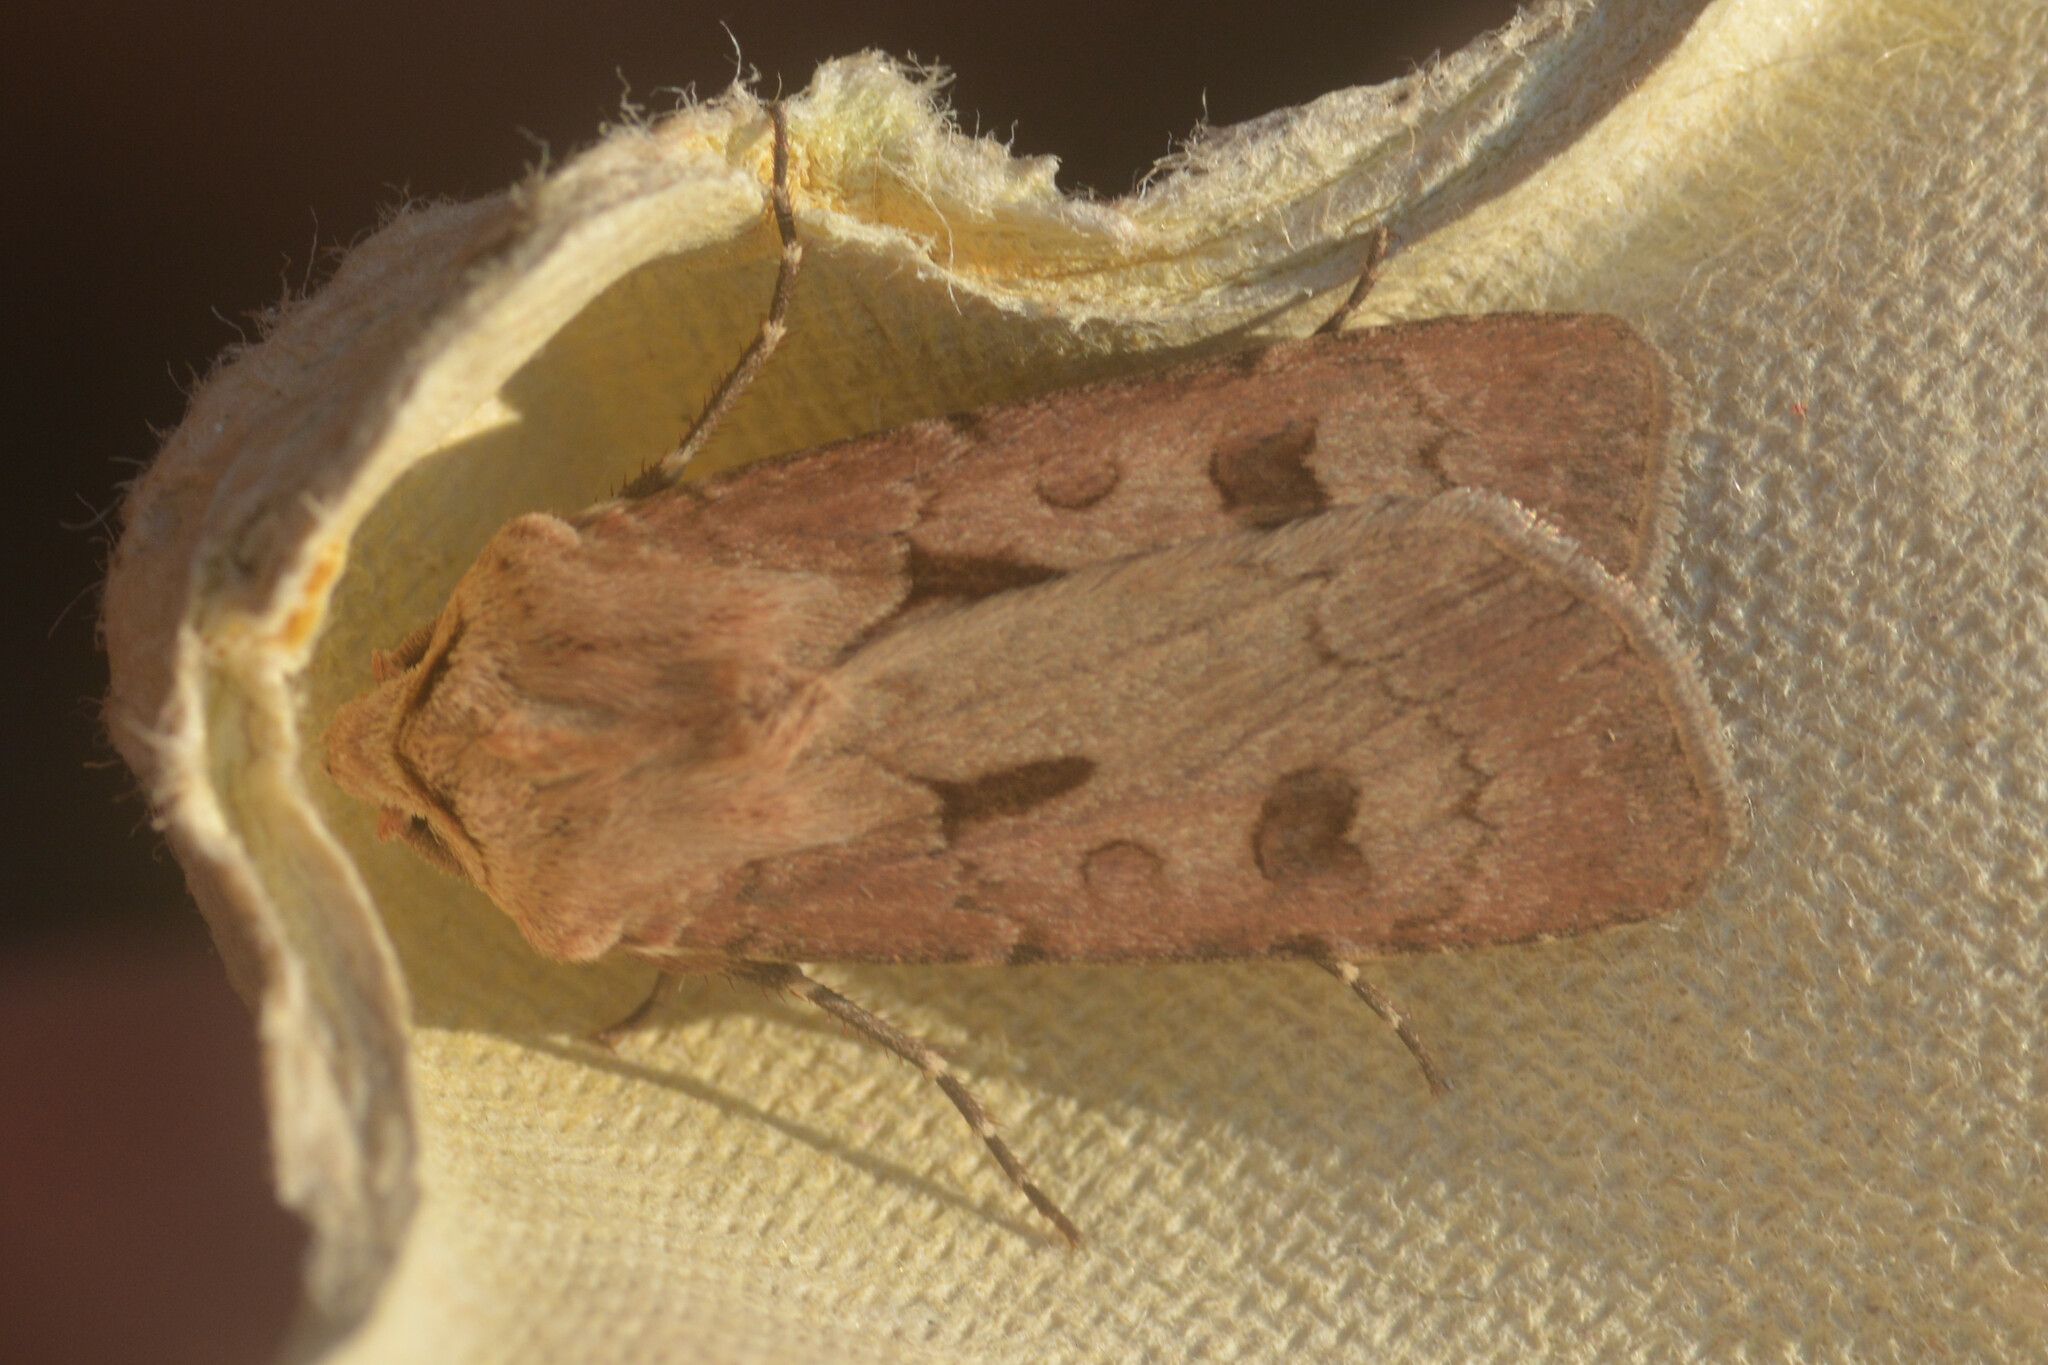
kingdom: Animalia
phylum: Arthropoda
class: Insecta
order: Lepidoptera
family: Noctuidae
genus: Agrotis
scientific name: Agrotis exclamationis
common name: Heart and dart
